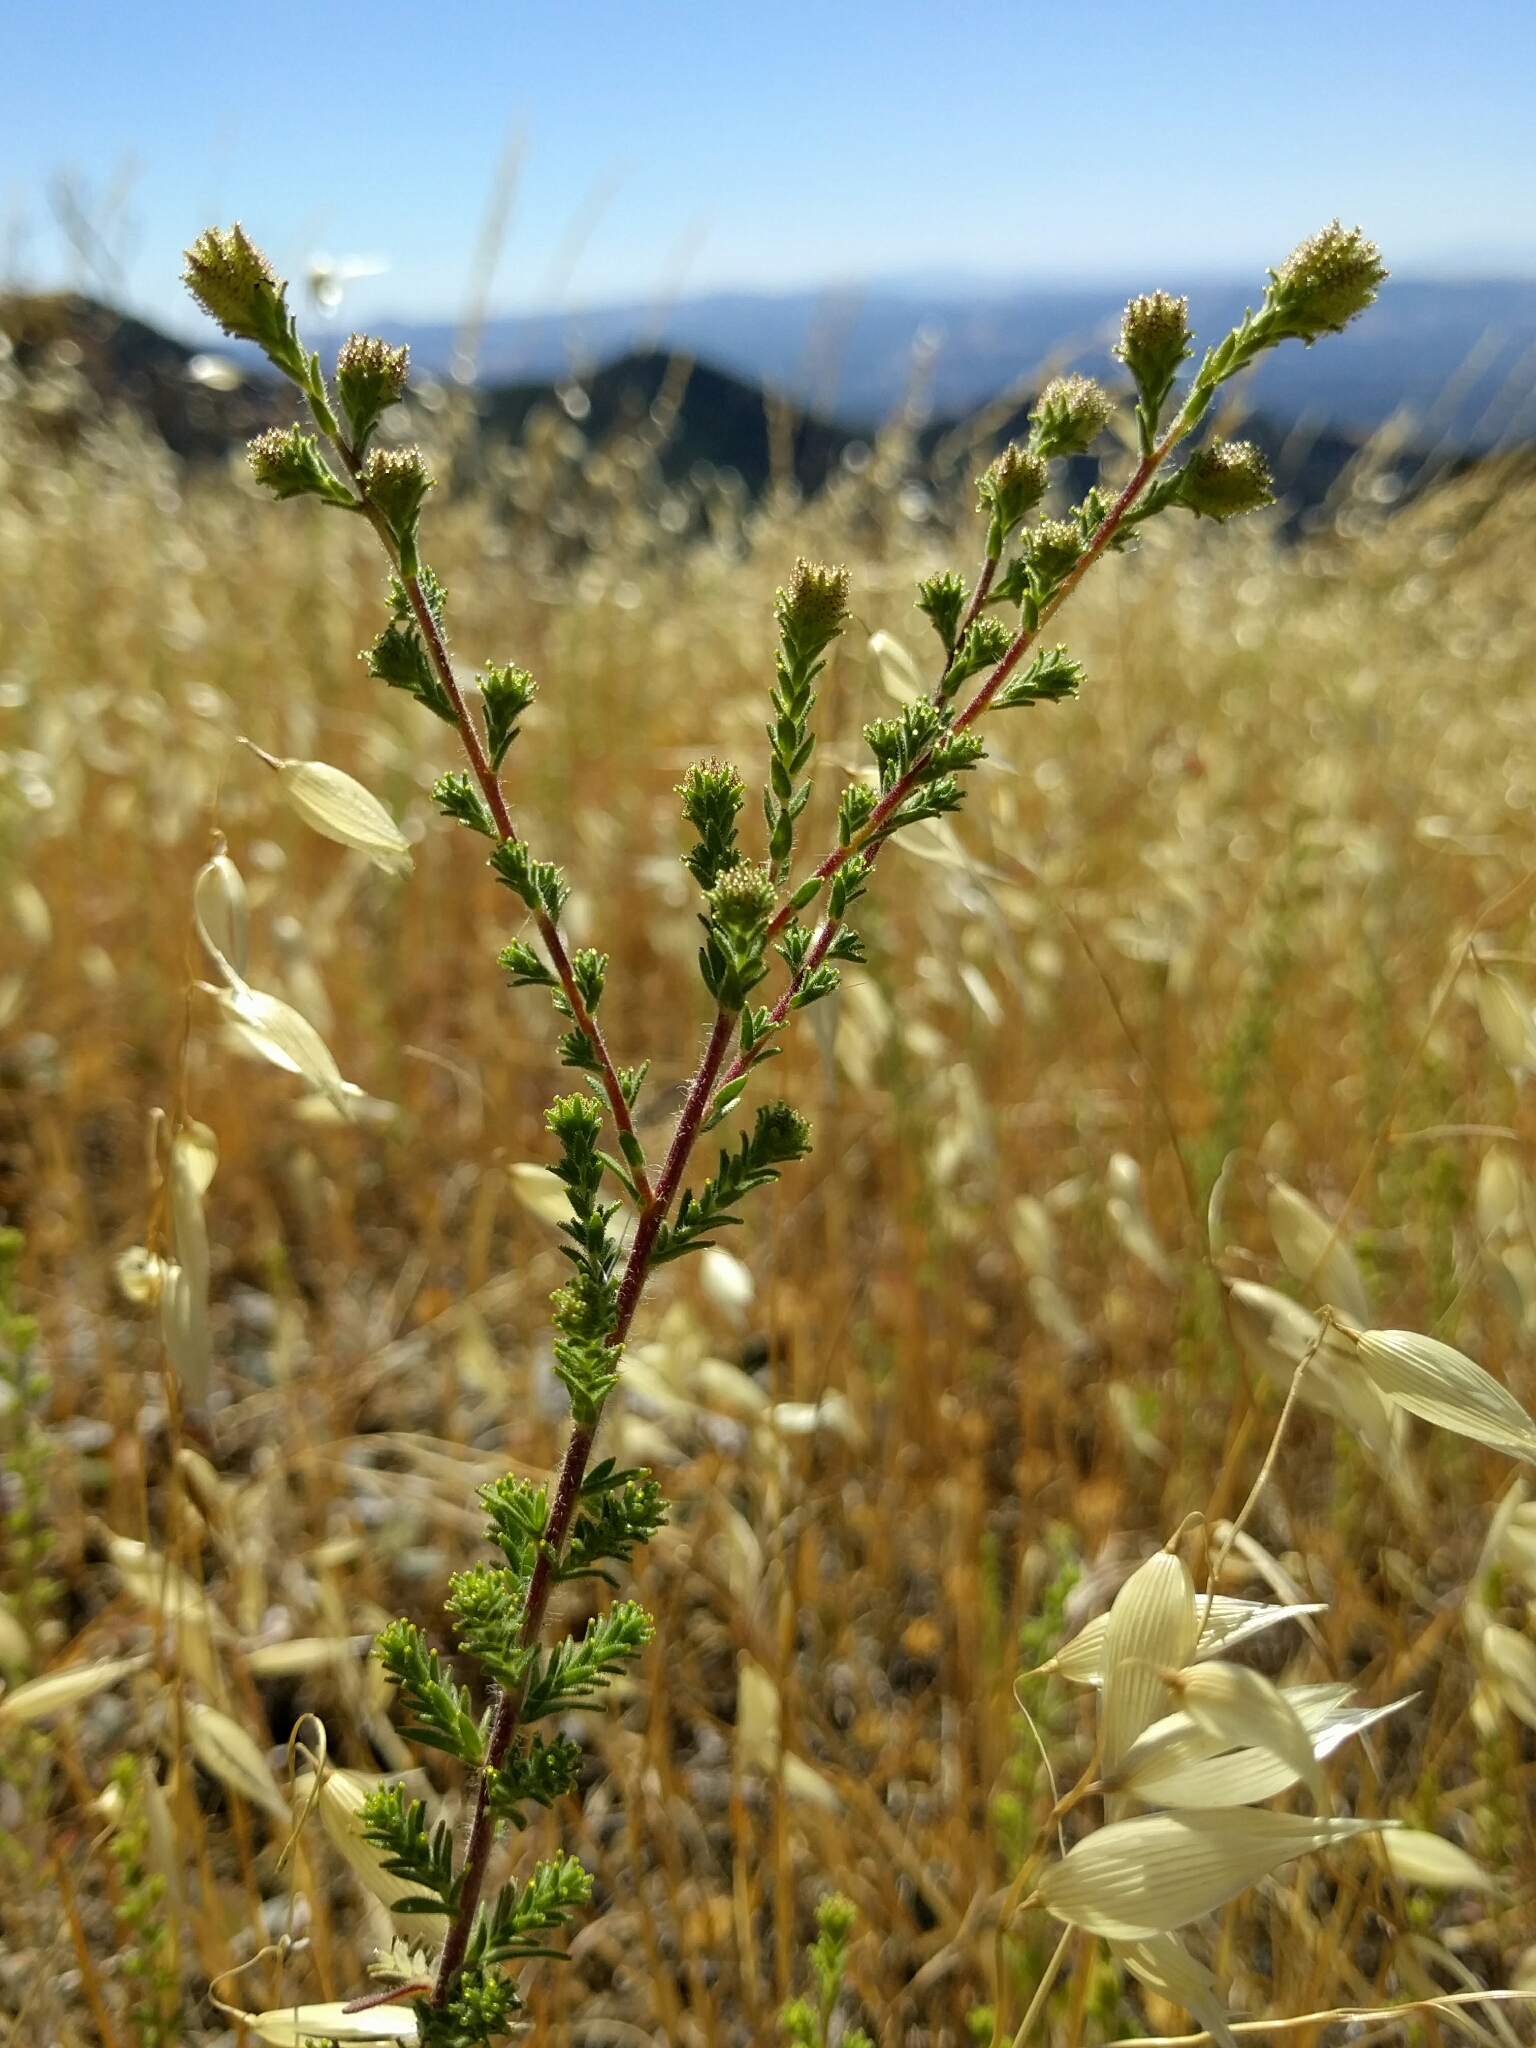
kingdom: Plantae
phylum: Tracheophyta
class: Magnoliopsida
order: Asterales
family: Asteraceae
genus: Holocarpha
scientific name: Holocarpha heermannii
